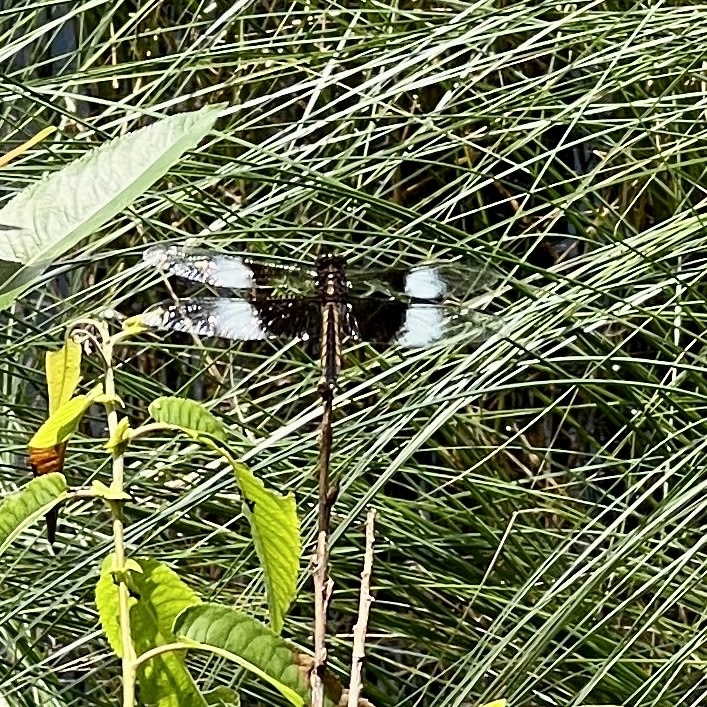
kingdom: Animalia
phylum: Arthropoda
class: Insecta
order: Odonata
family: Libellulidae
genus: Libellula
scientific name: Libellula luctuosa
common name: Widow skimmer
